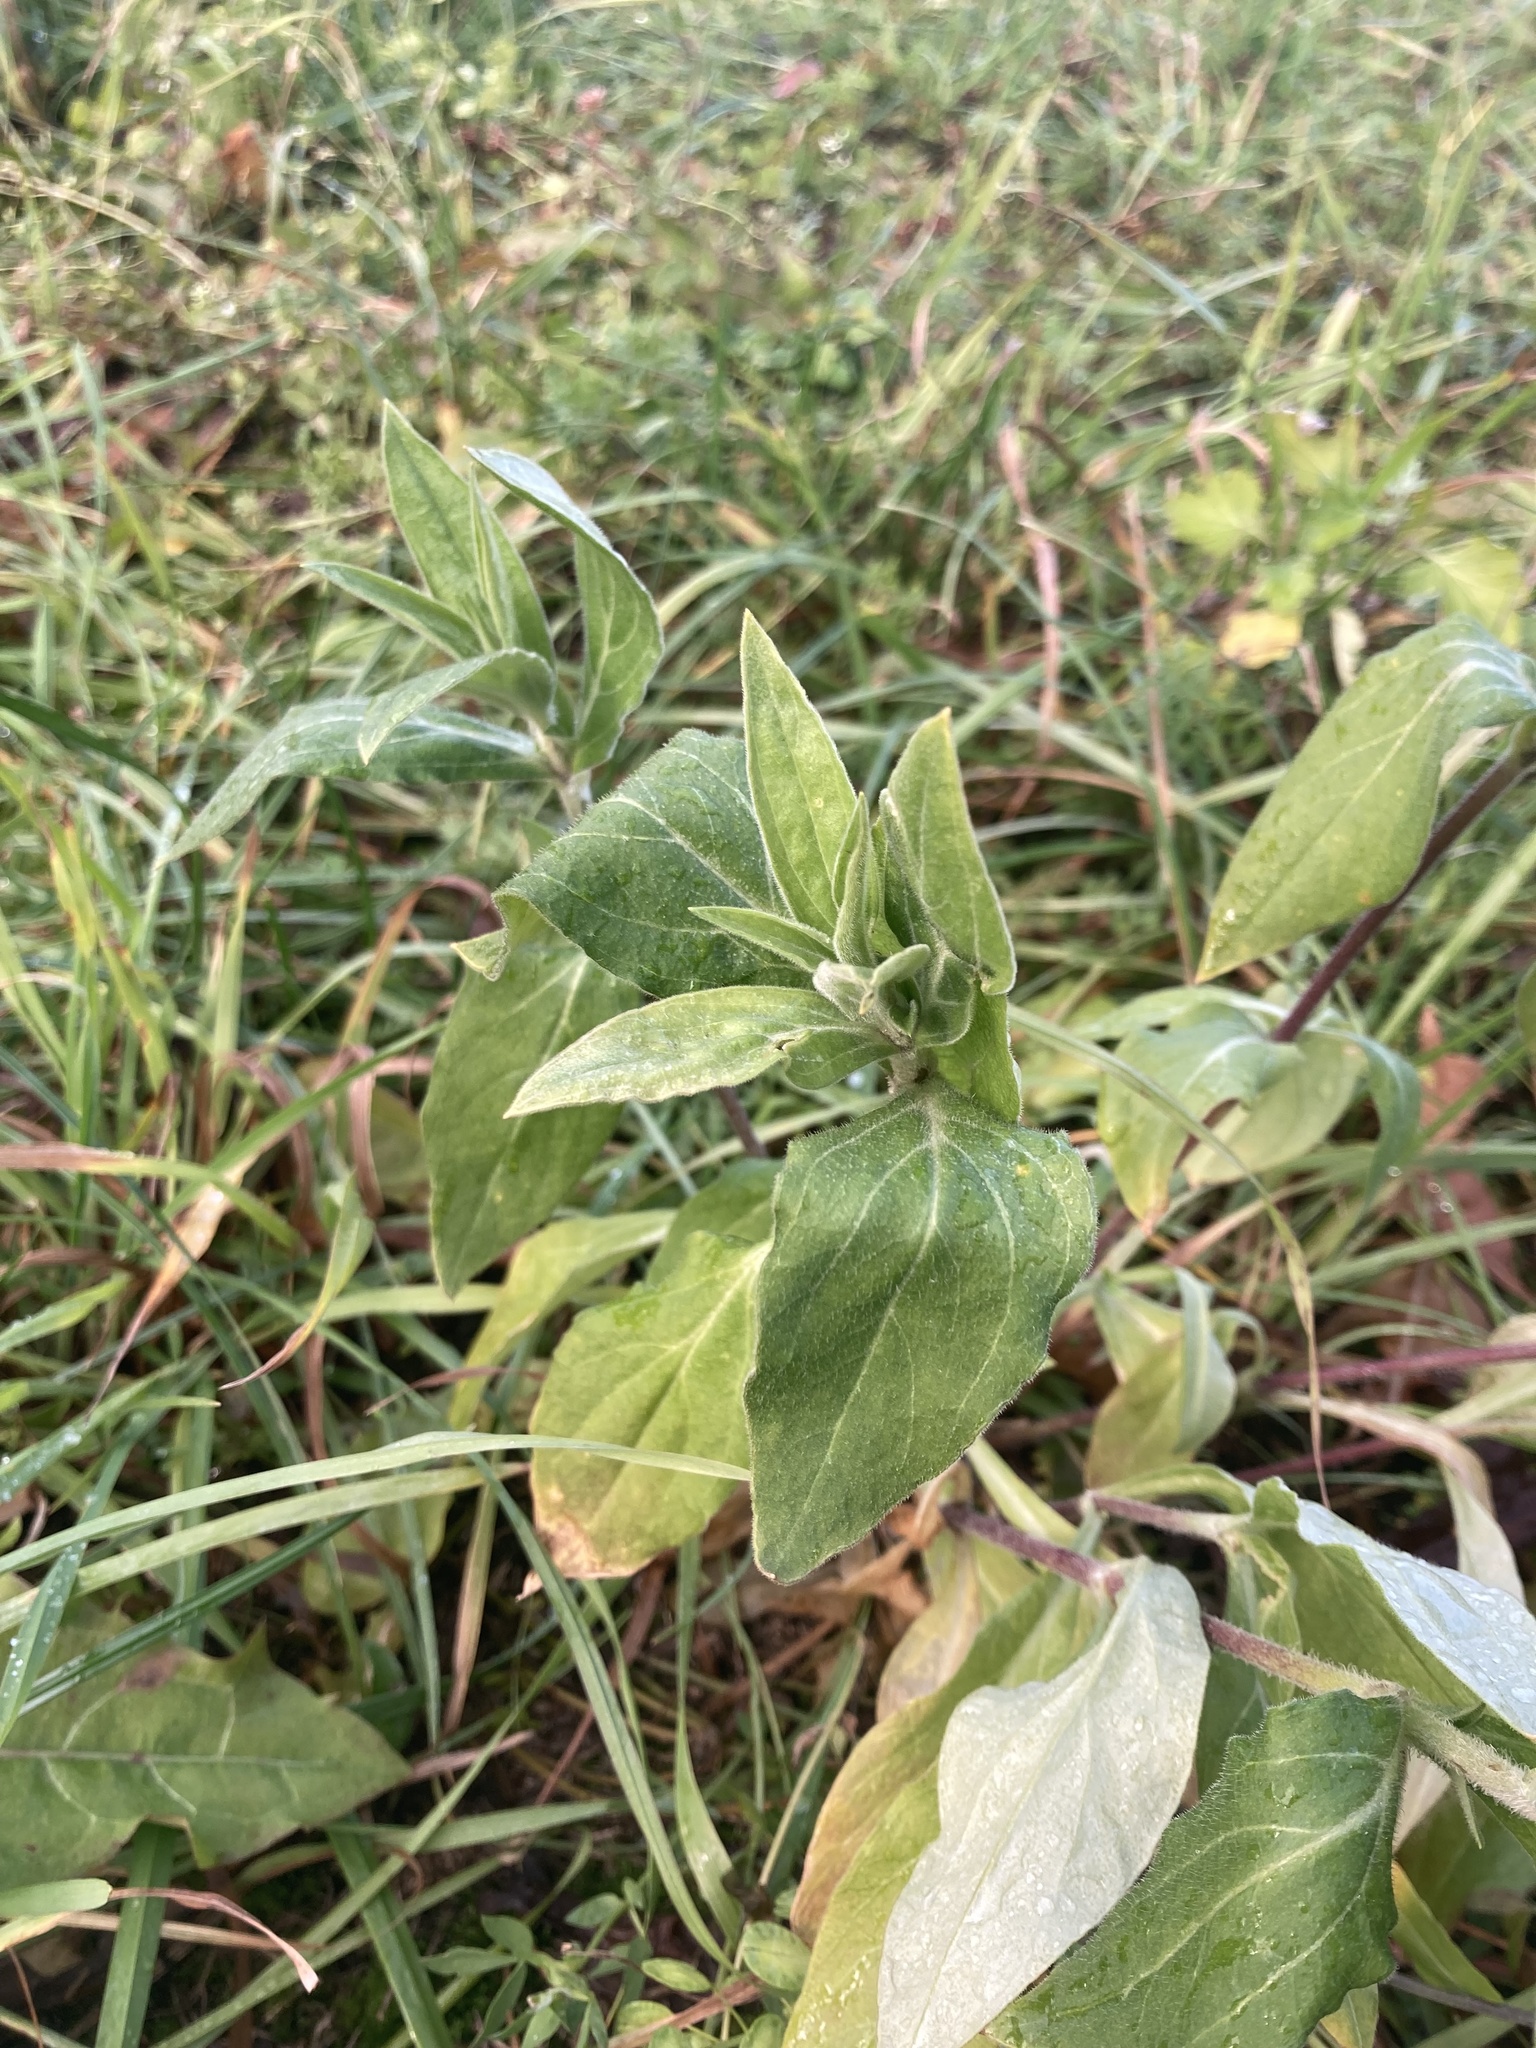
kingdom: Plantae
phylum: Tracheophyta
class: Magnoliopsida
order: Caryophyllales
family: Caryophyllaceae
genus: Silene
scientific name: Silene latifolia
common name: White campion
